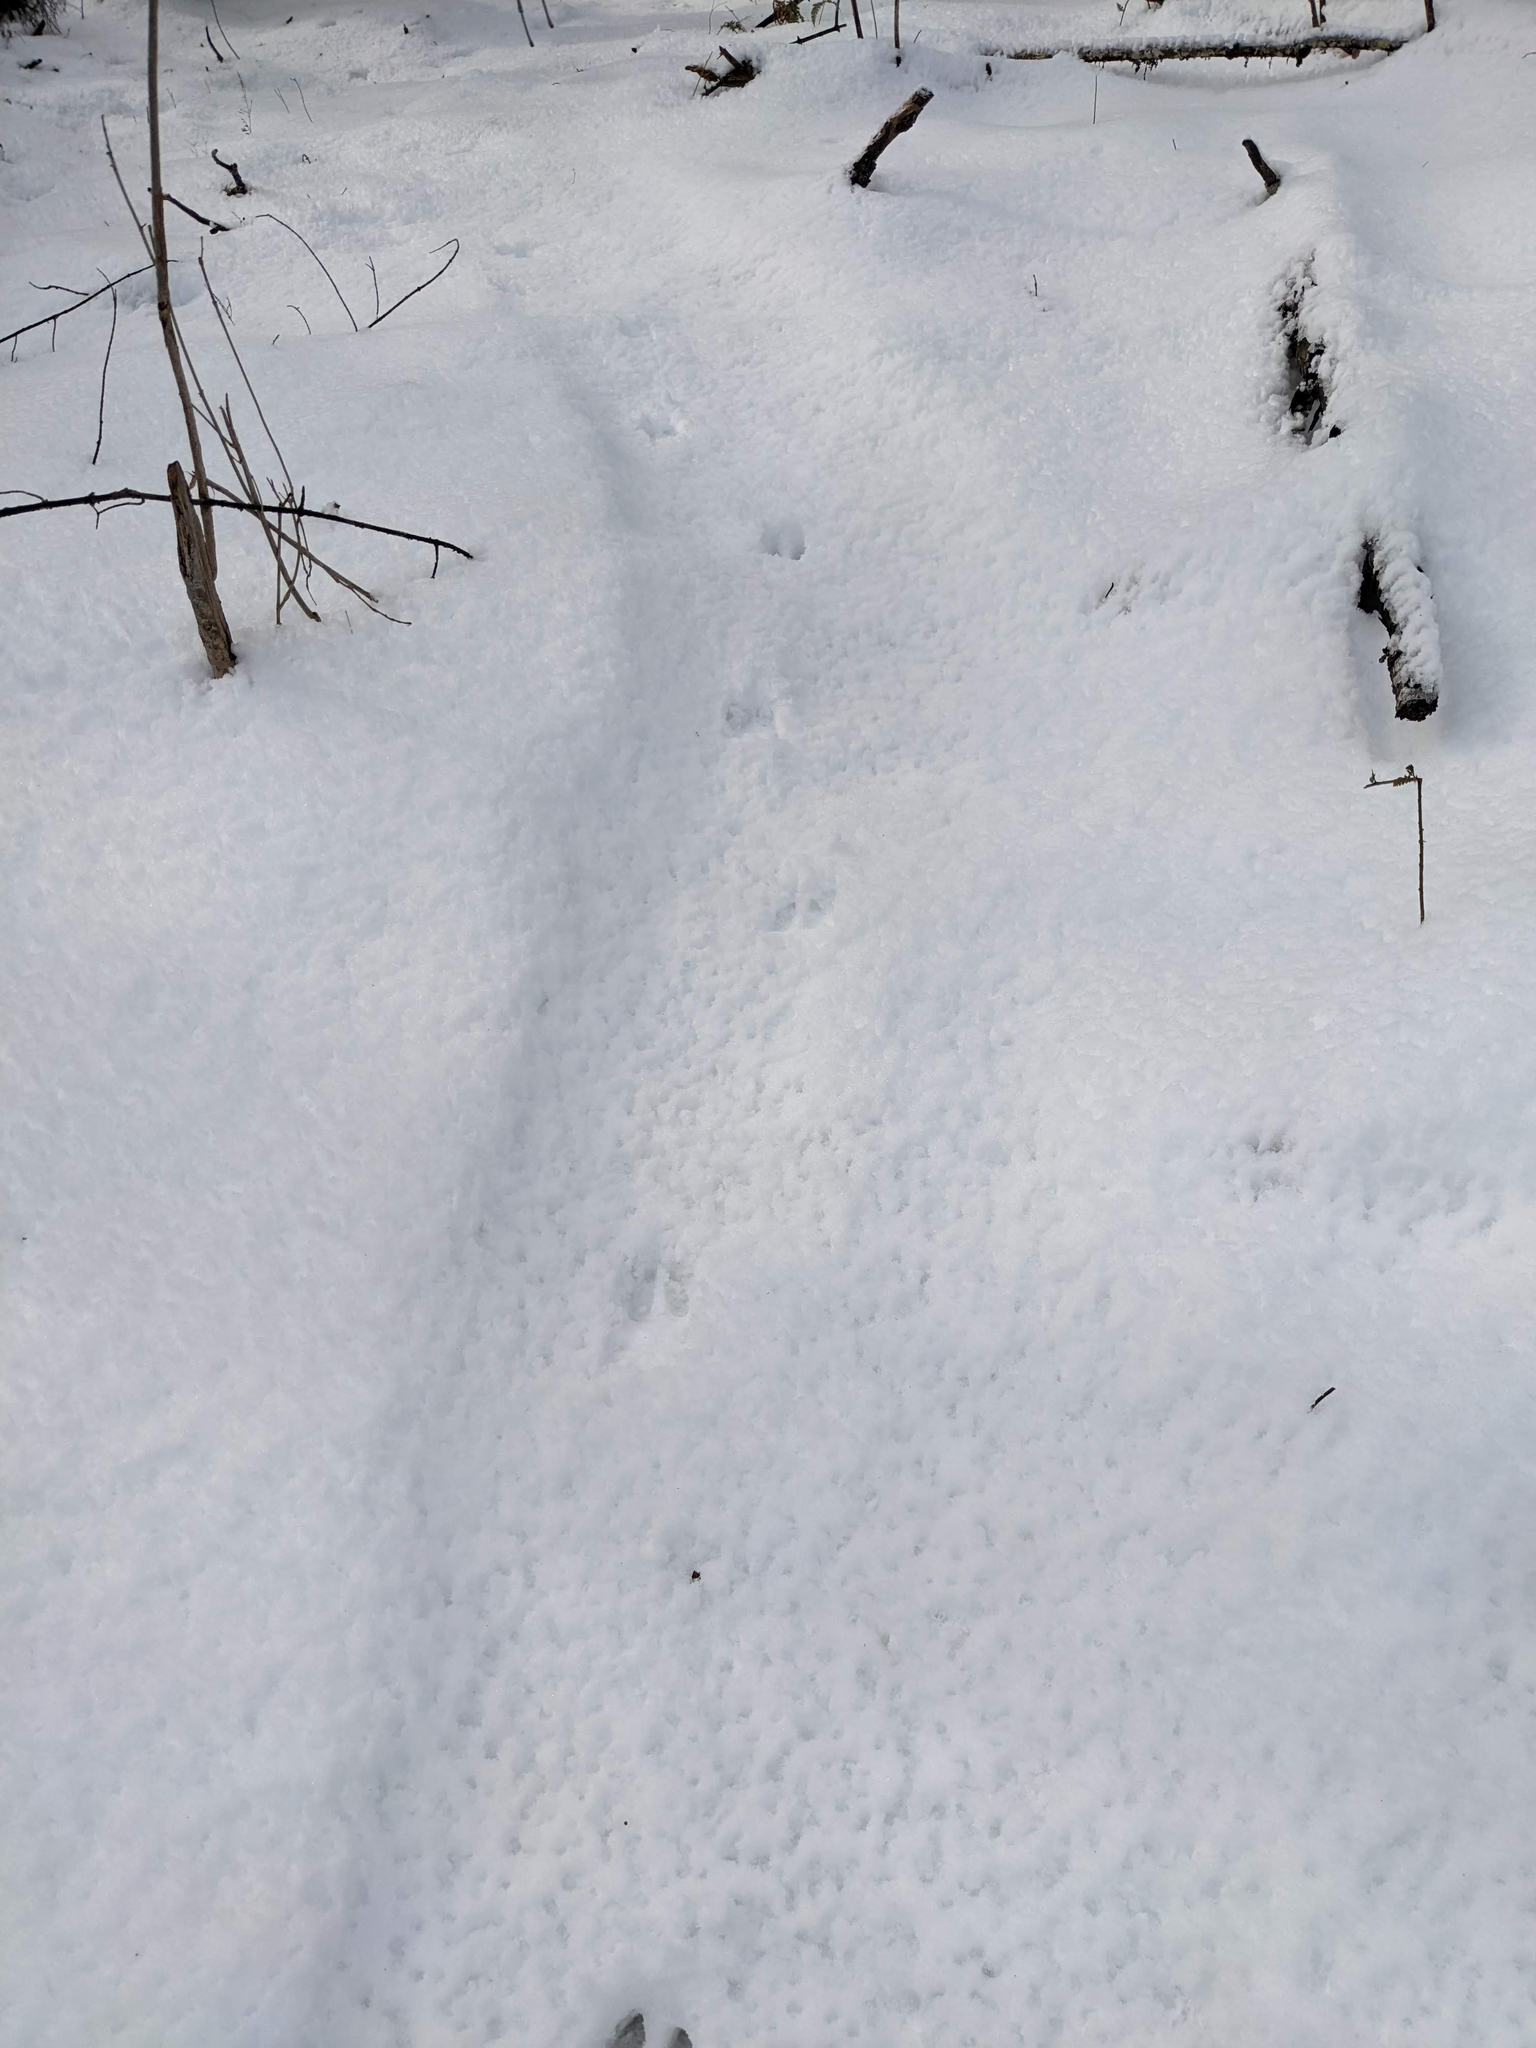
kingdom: Animalia
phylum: Chordata
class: Mammalia
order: Artiodactyla
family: Cervidae
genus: Odocoileus
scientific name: Odocoileus virginianus
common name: White-tailed deer
